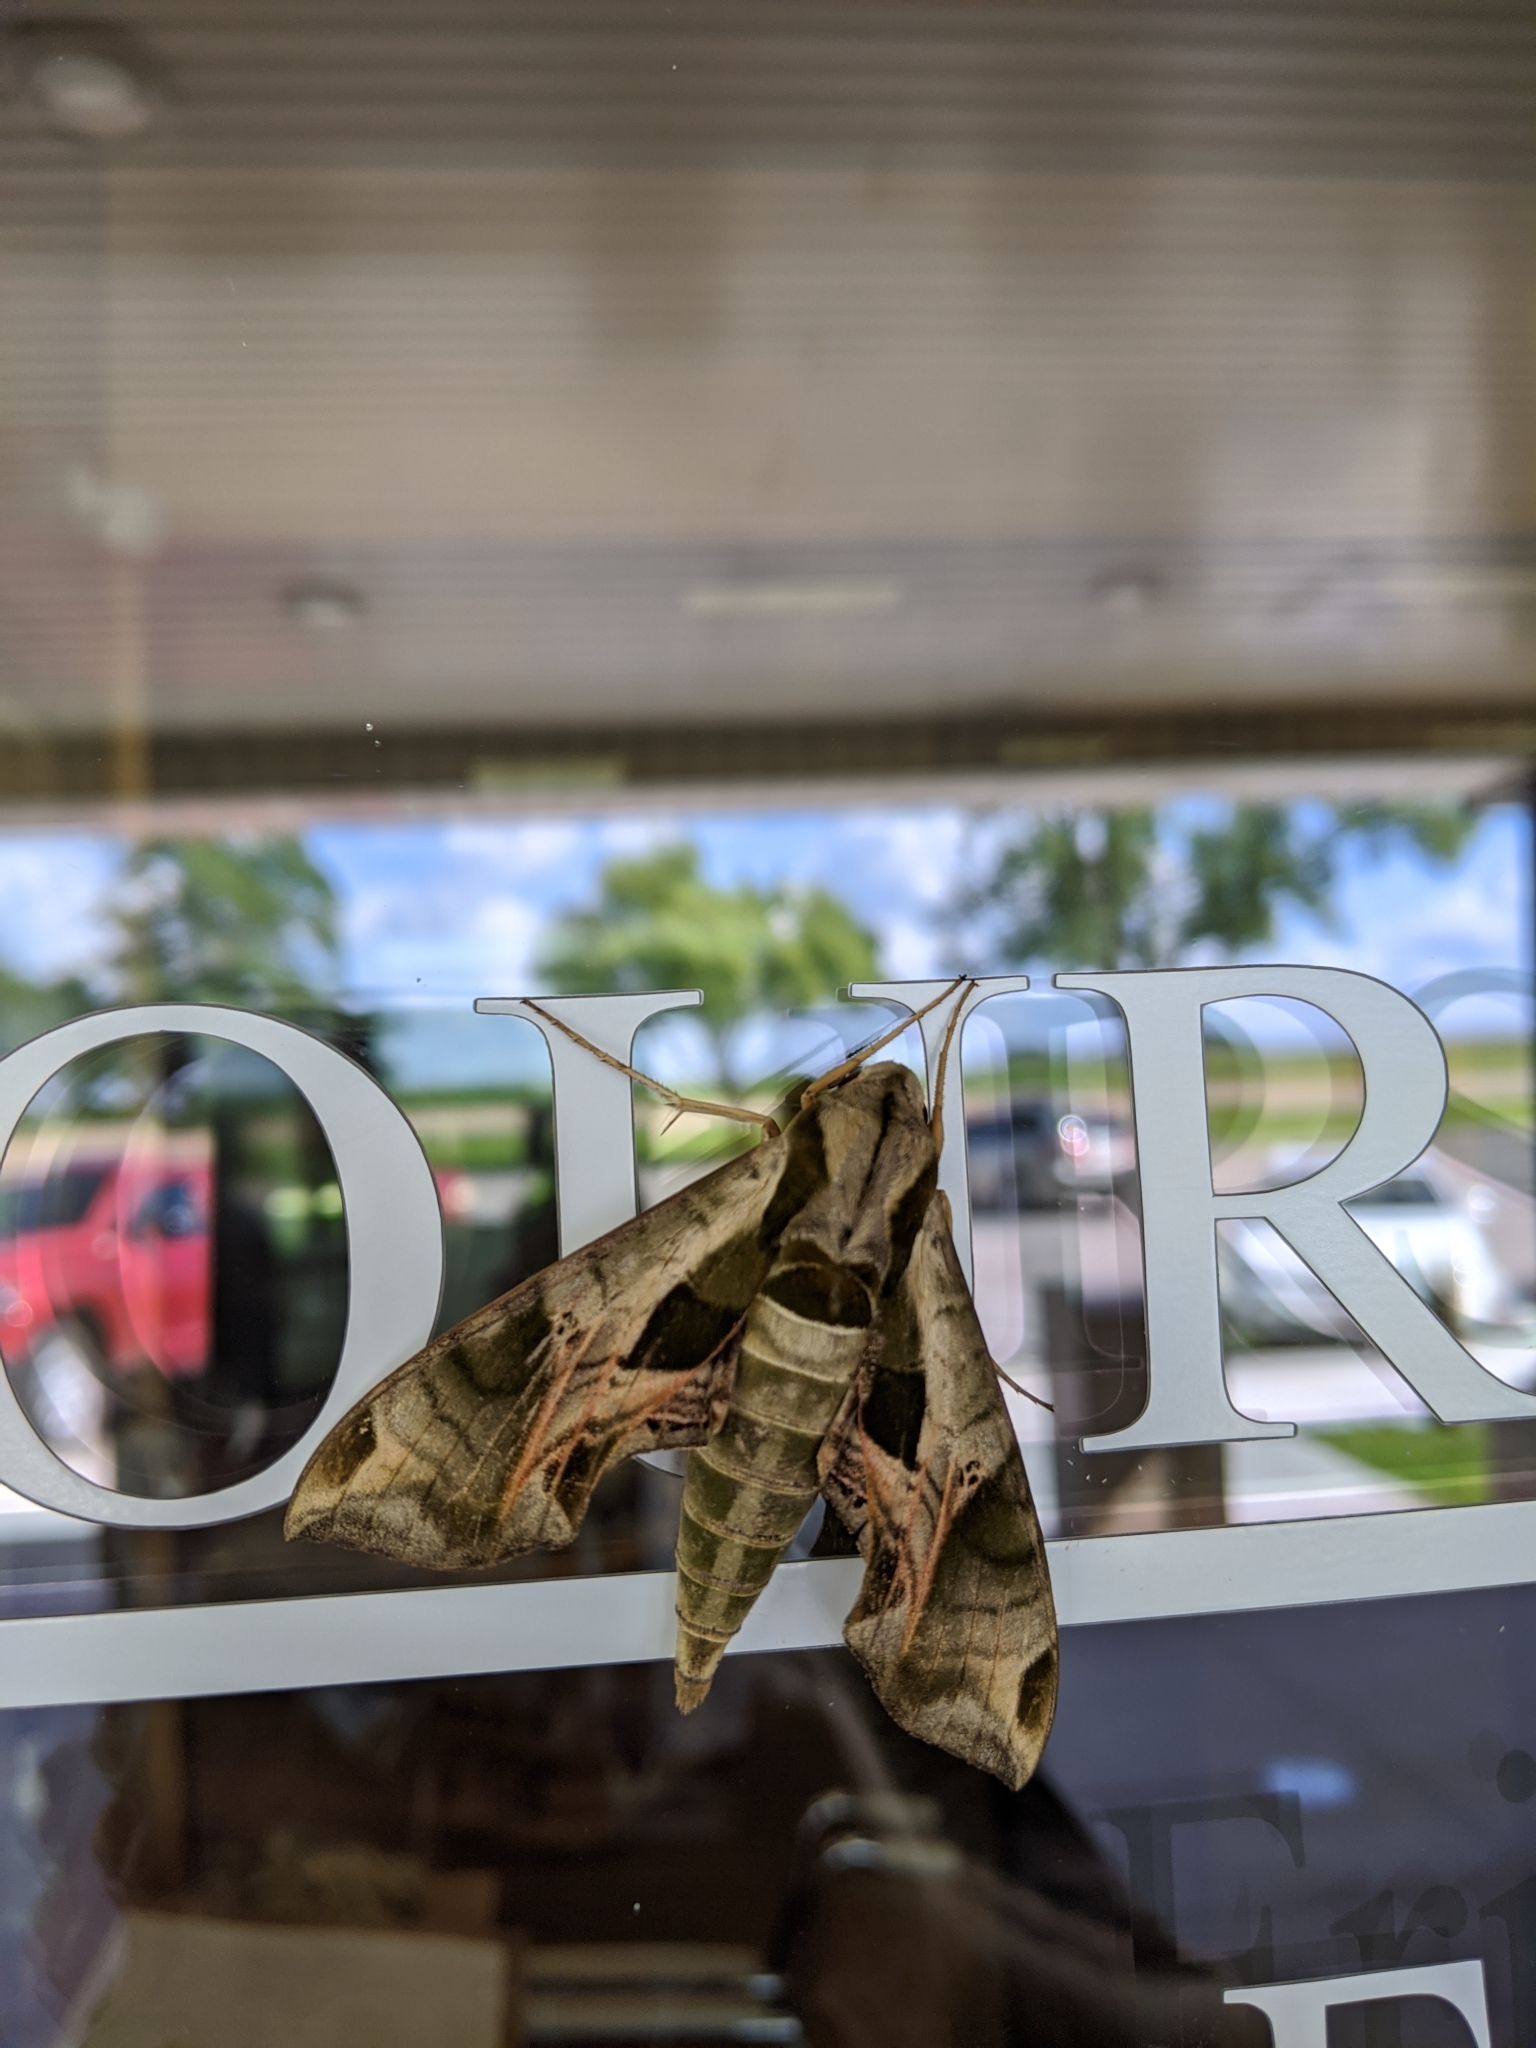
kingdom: Animalia
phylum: Arthropoda
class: Insecta
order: Lepidoptera
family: Sphingidae
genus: Eumorpha
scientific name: Eumorpha pandorus
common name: Pandora sphinx
